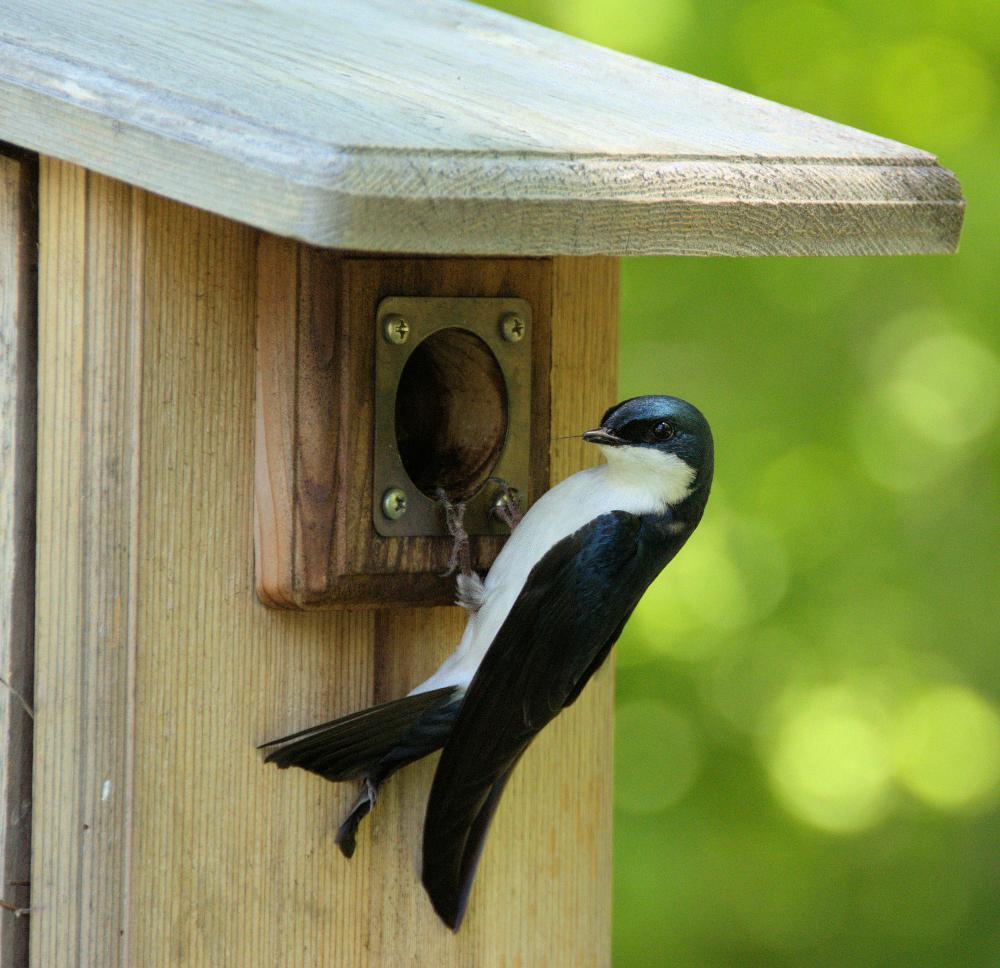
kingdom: Animalia
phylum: Chordata
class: Aves
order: Passeriformes
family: Hirundinidae
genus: Tachycineta
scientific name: Tachycineta bicolor
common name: Tree swallow
